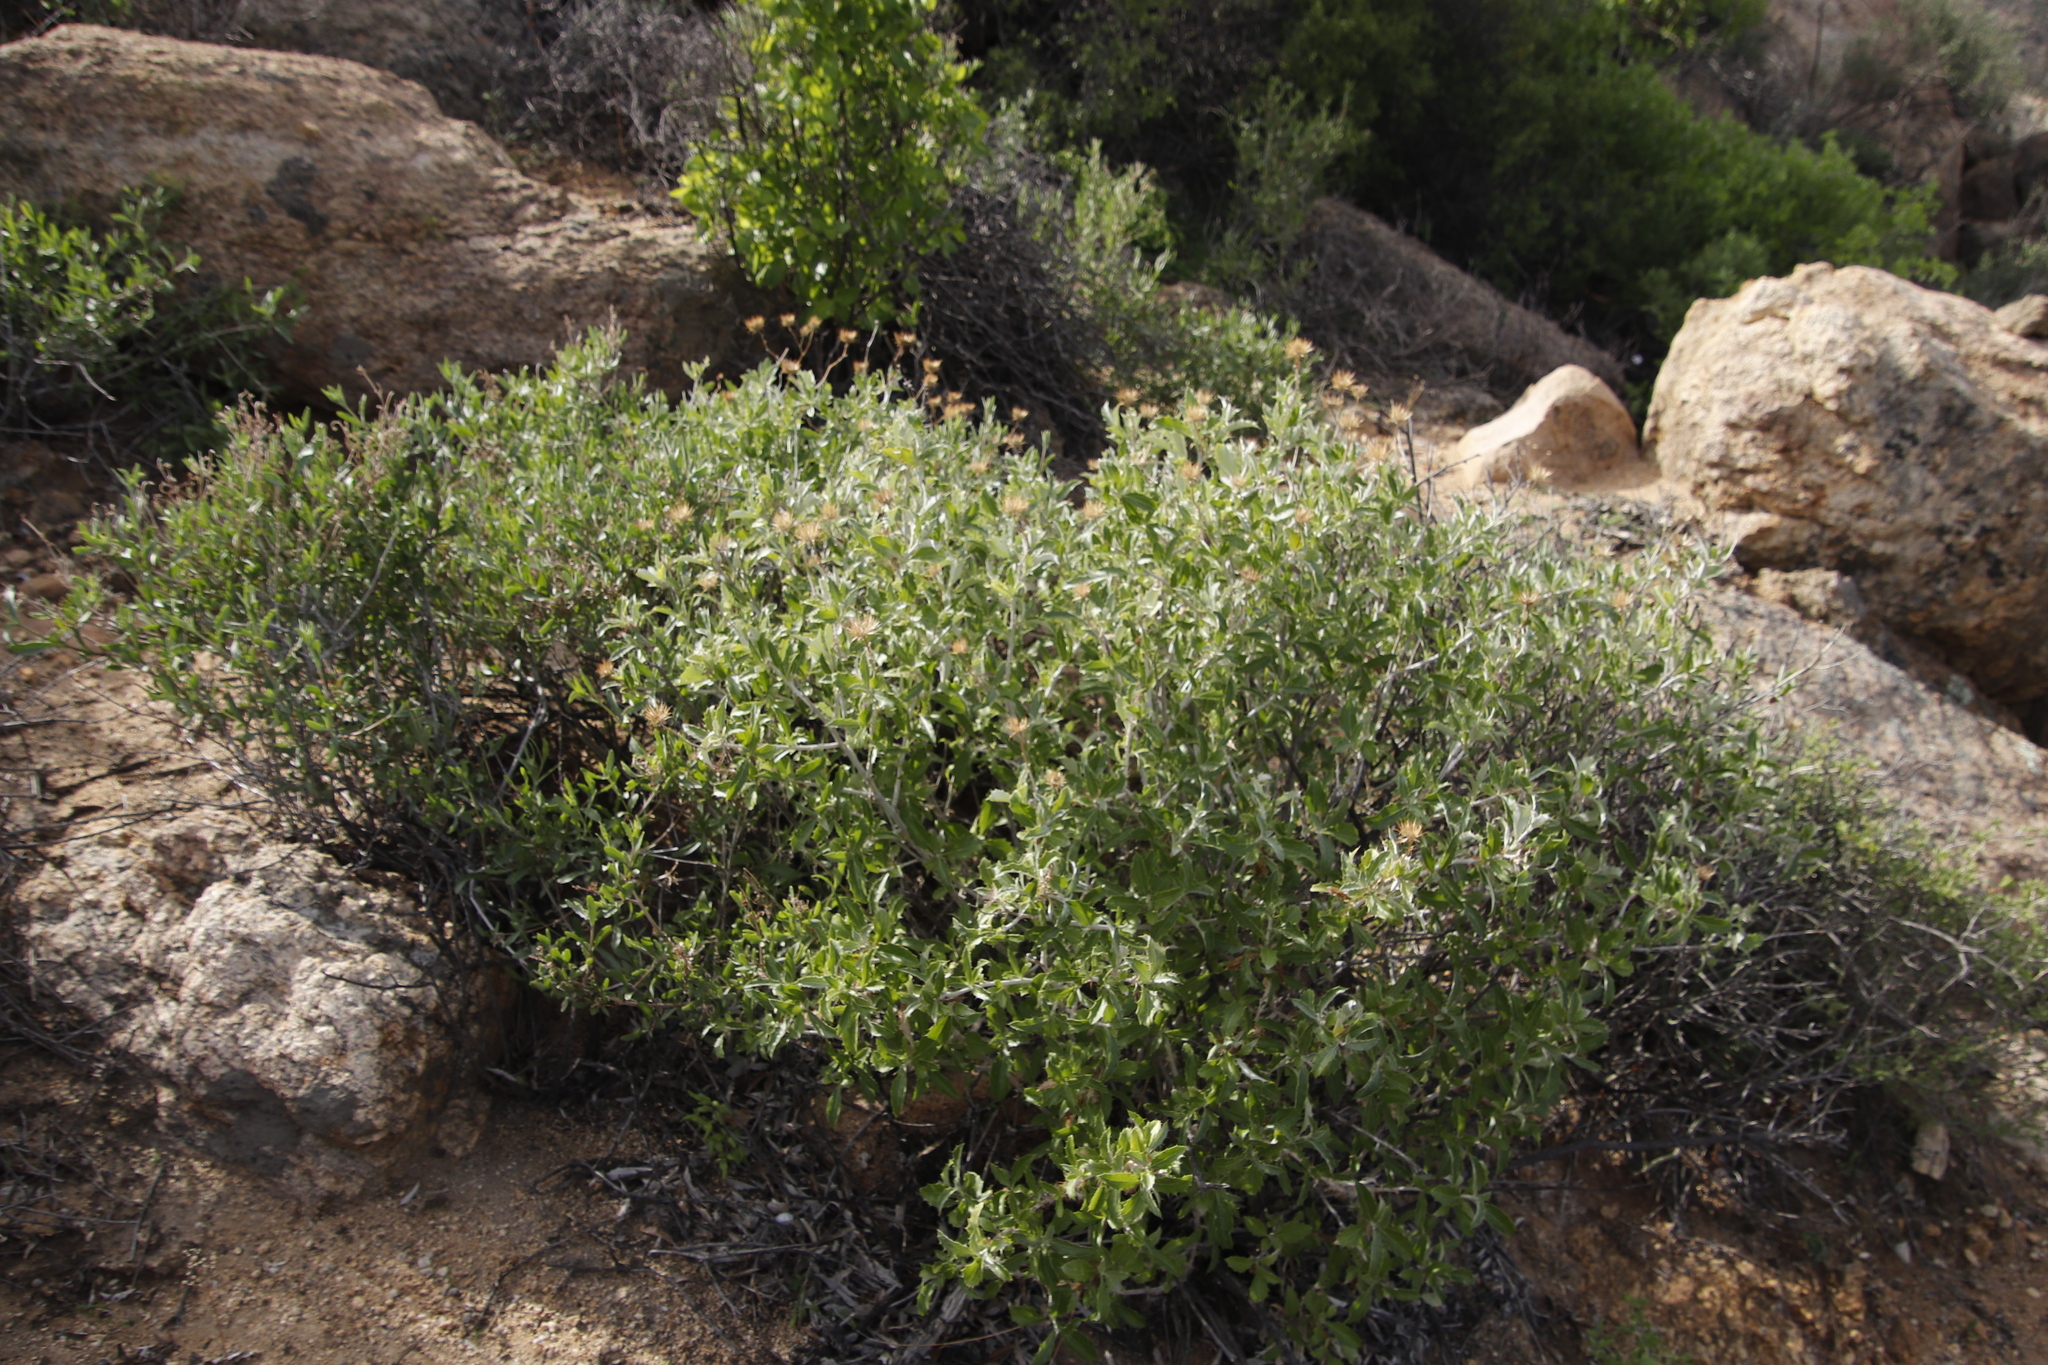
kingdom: Plantae
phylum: Tracheophyta
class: Magnoliopsida
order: Asterales
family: Asteraceae
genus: Berkheya
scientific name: Berkheya fruticosa
